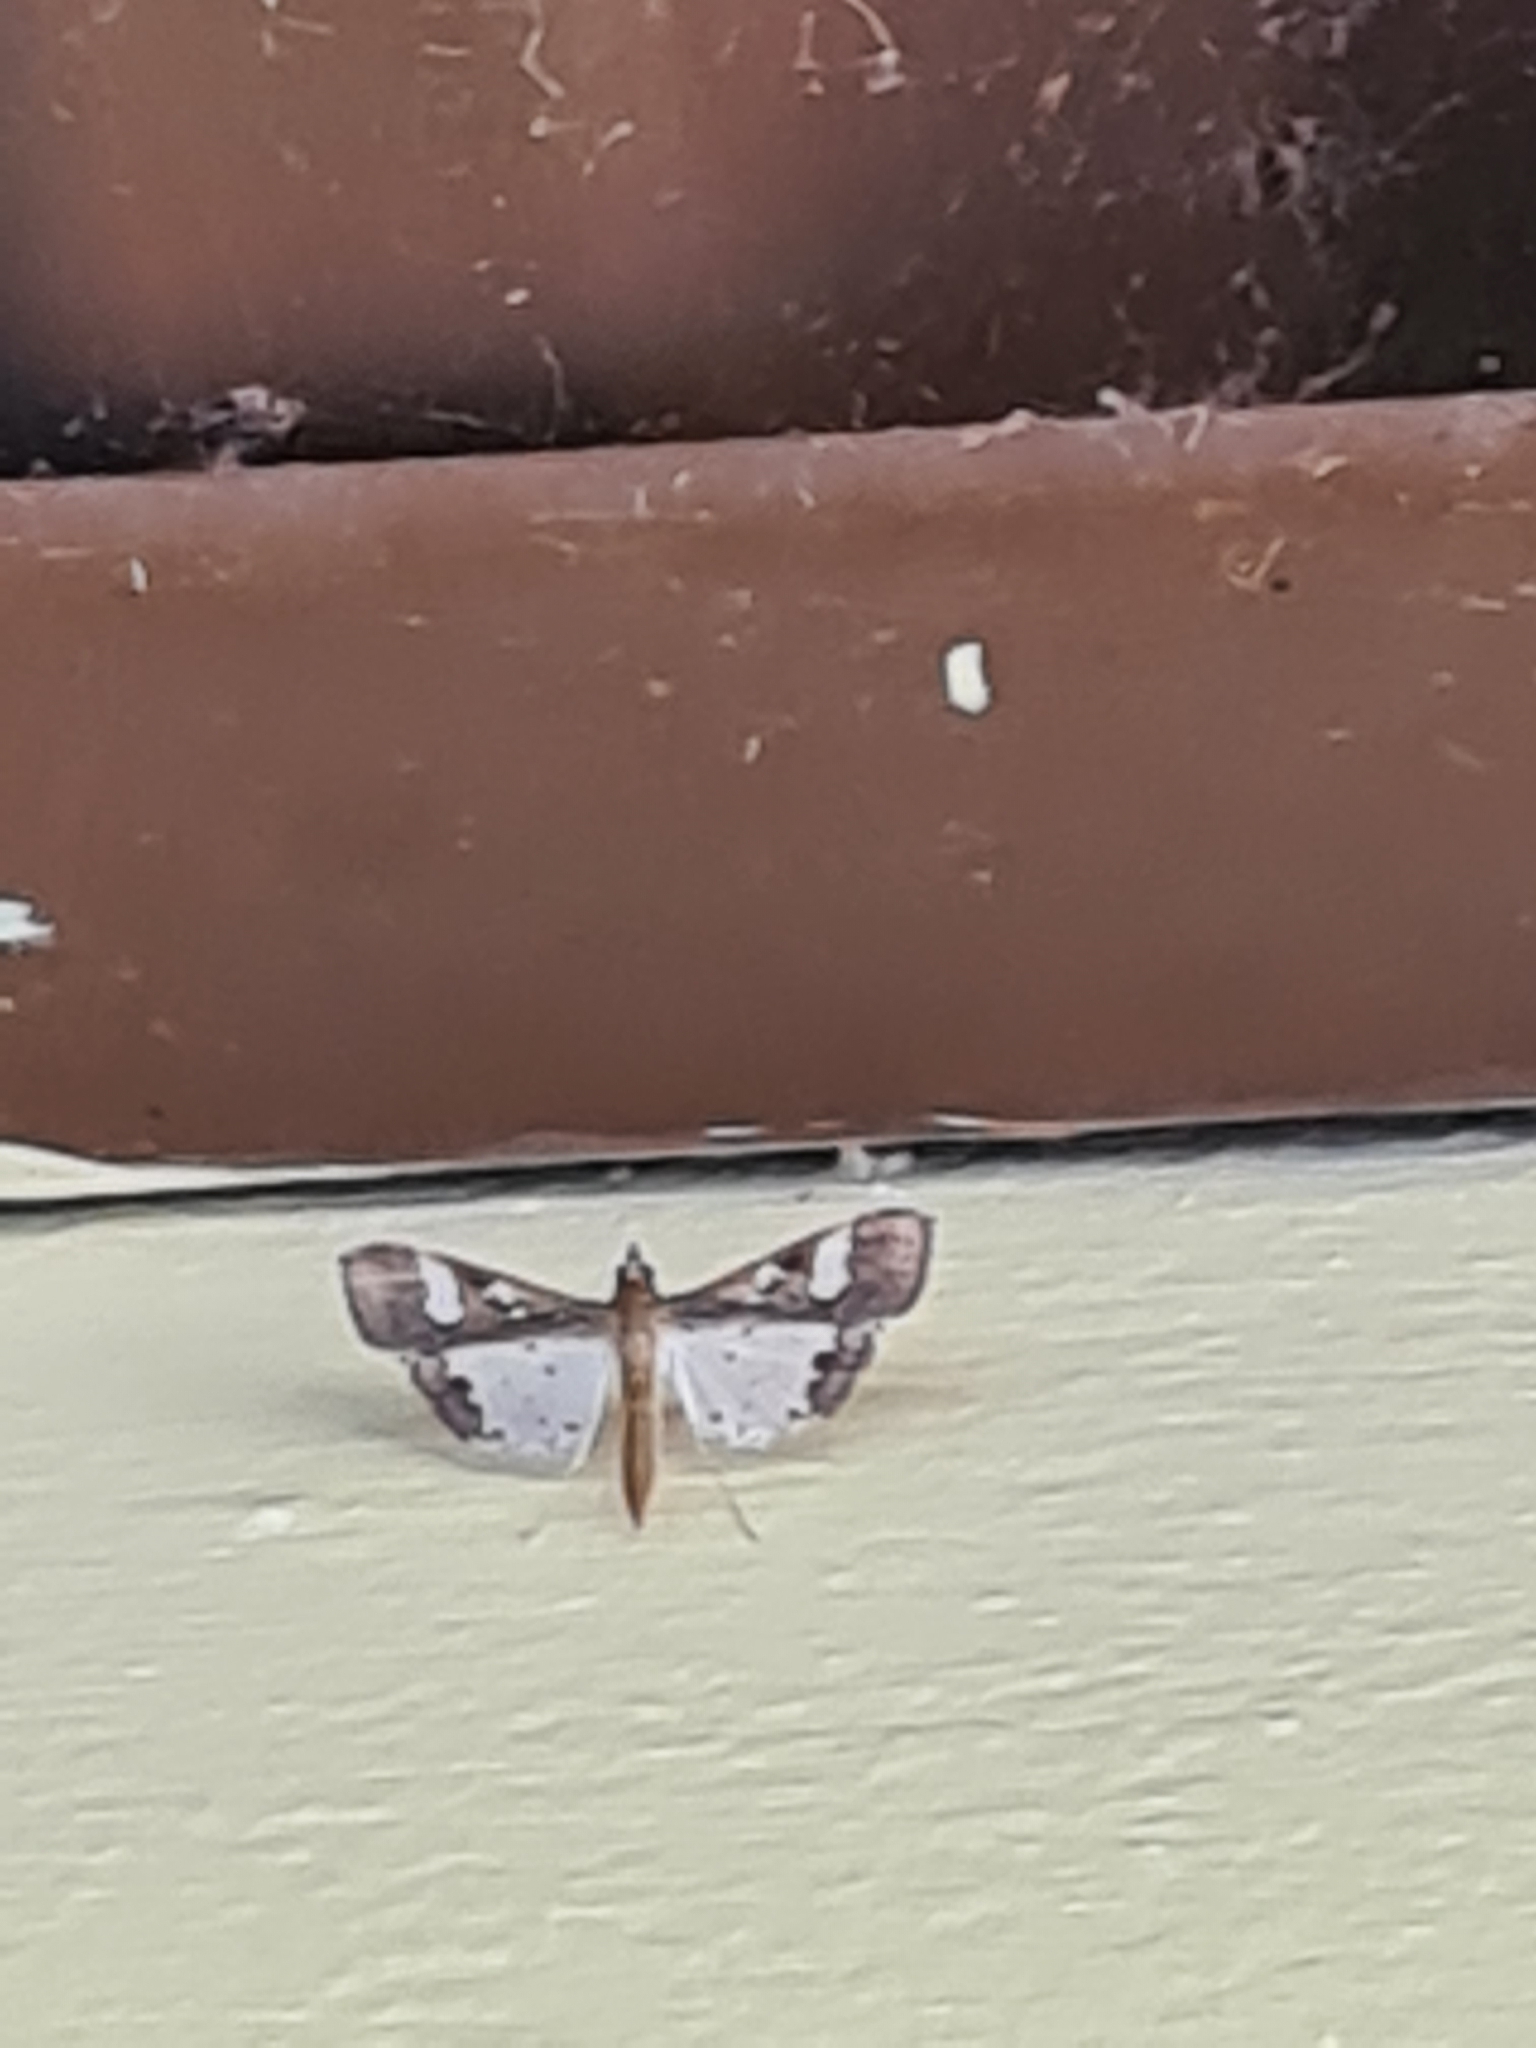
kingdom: Animalia
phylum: Arthropoda
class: Insecta
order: Lepidoptera
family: Crambidae
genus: Maruca
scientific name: Maruca vitrata
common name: Maruca pod borer
